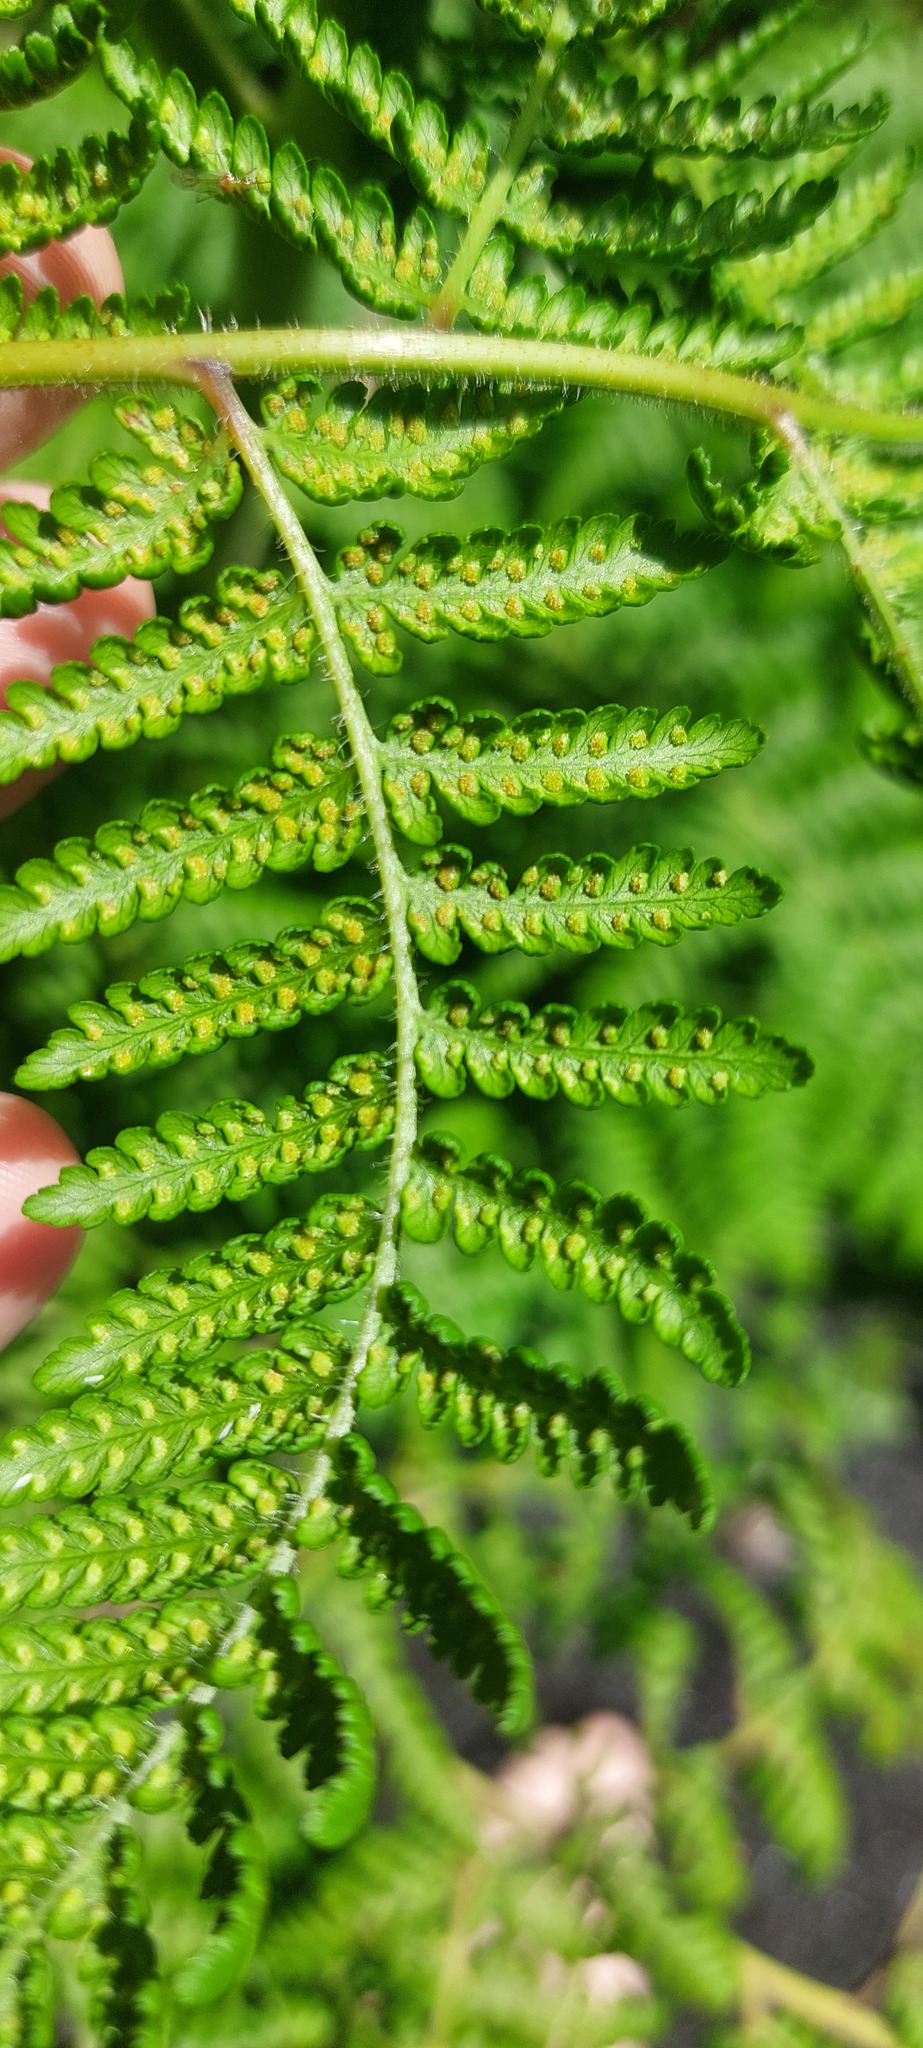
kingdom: Plantae
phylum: Tracheophyta
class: Polypodiopsida
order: Polypodiales
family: Dennstaedtiaceae
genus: Hypolepis
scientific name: Hypolepis dicksonioides
